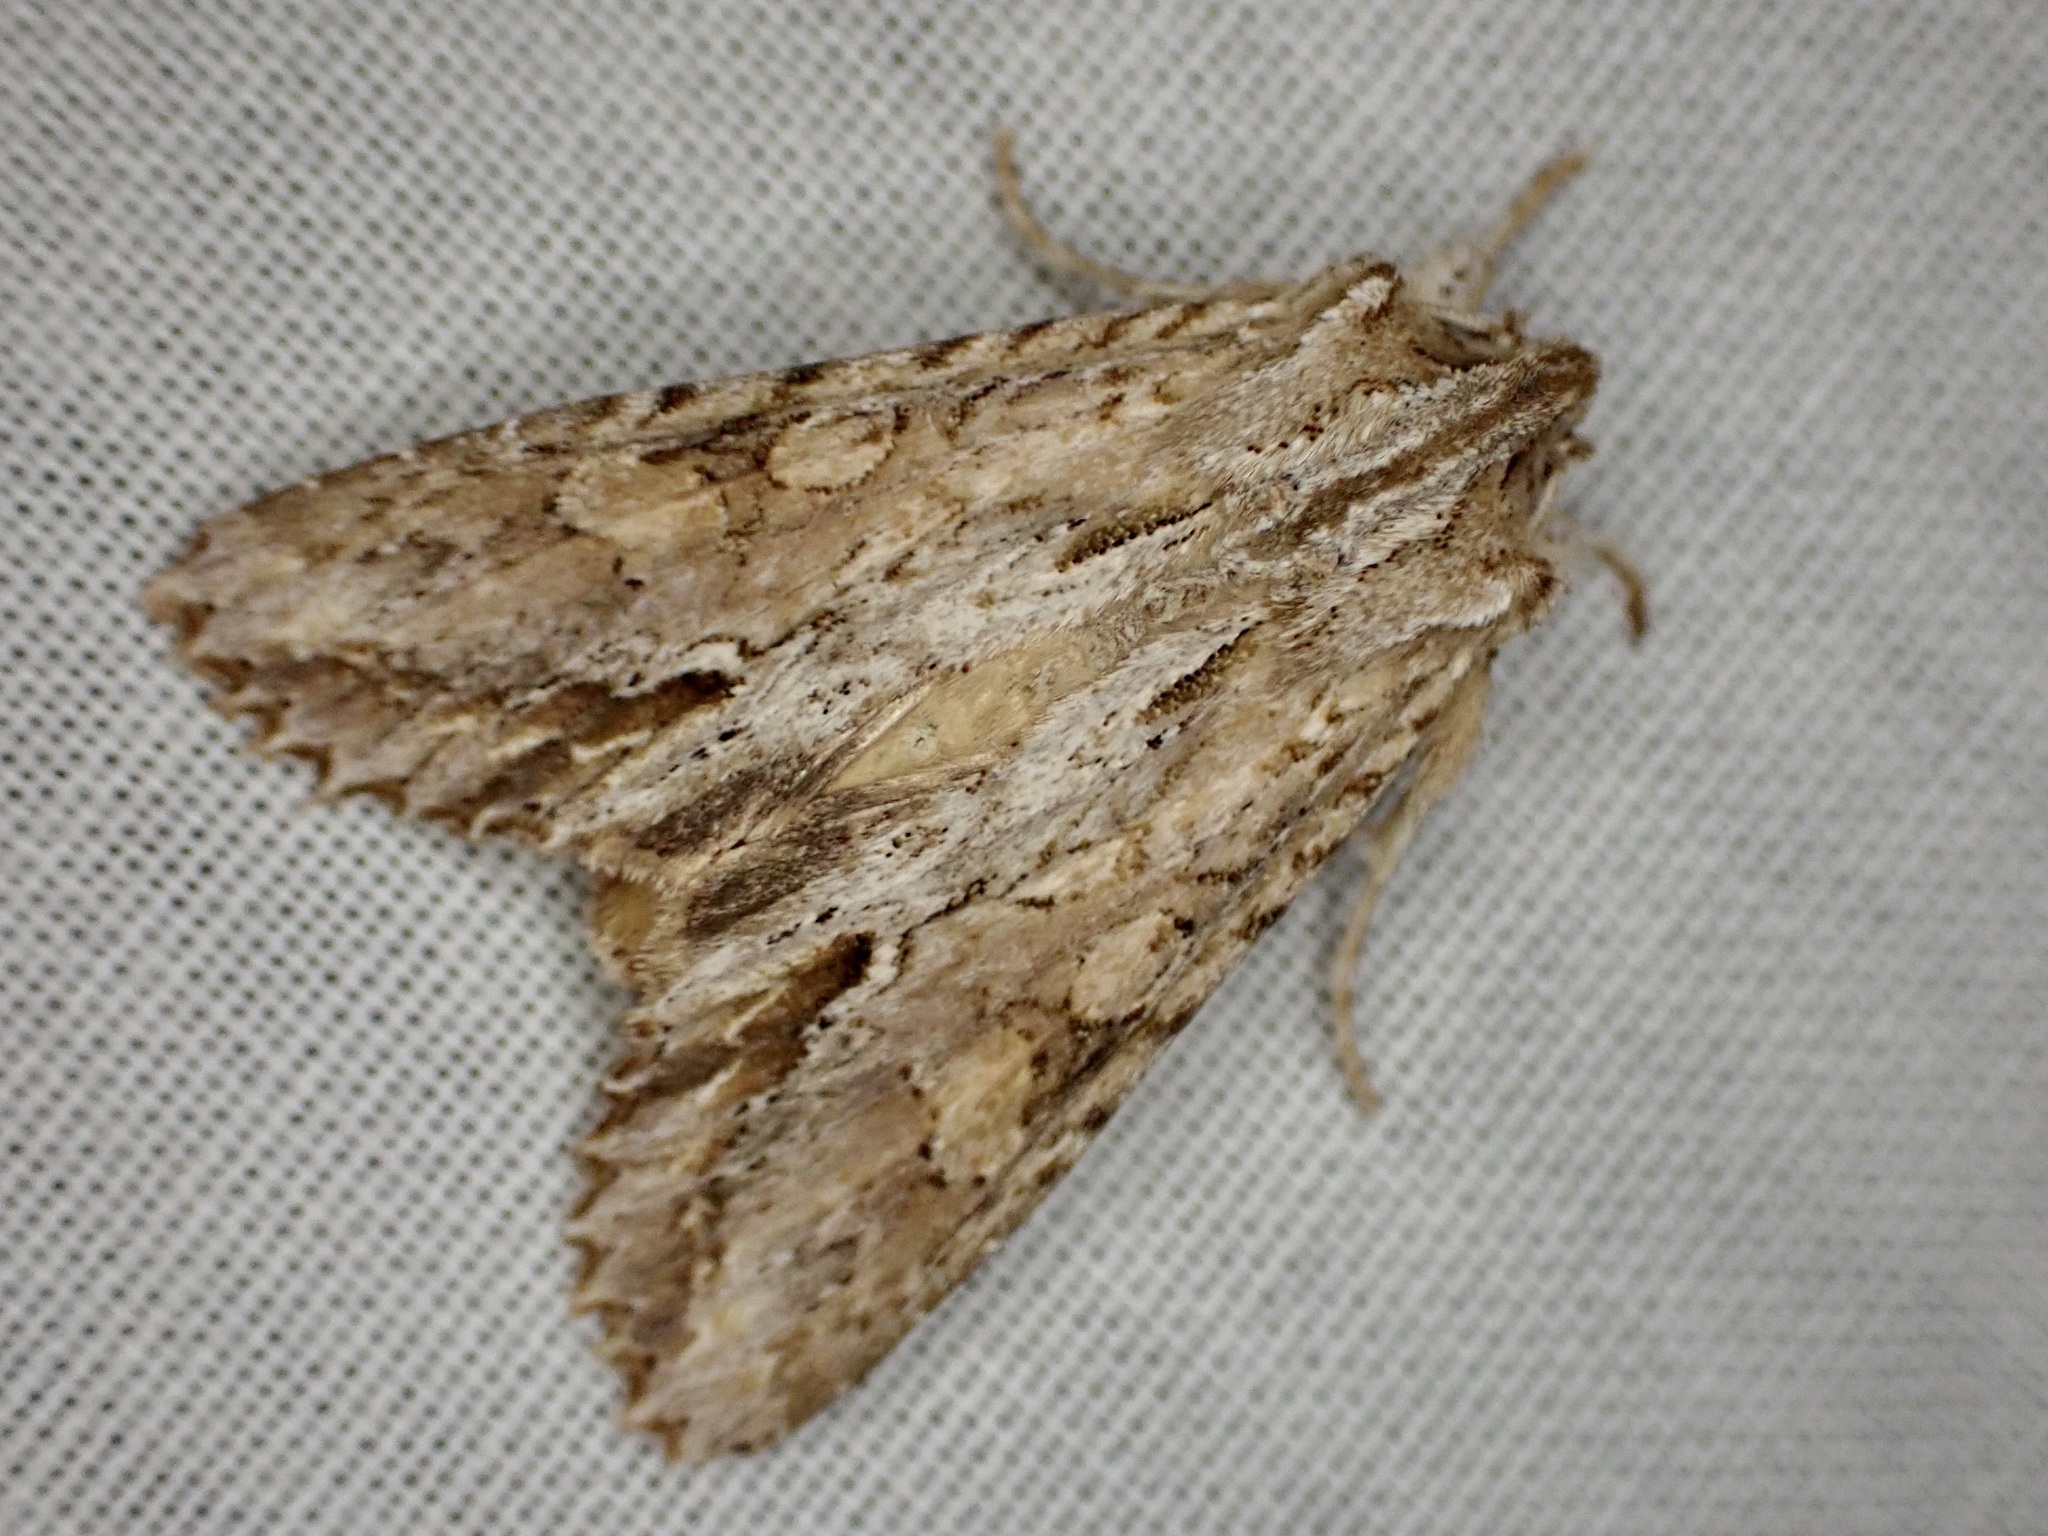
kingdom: Animalia
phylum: Arthropoda
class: Insecta
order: Lepidoptera
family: Noctuidae
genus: Ichneutica
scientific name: Ichneutica mollis
